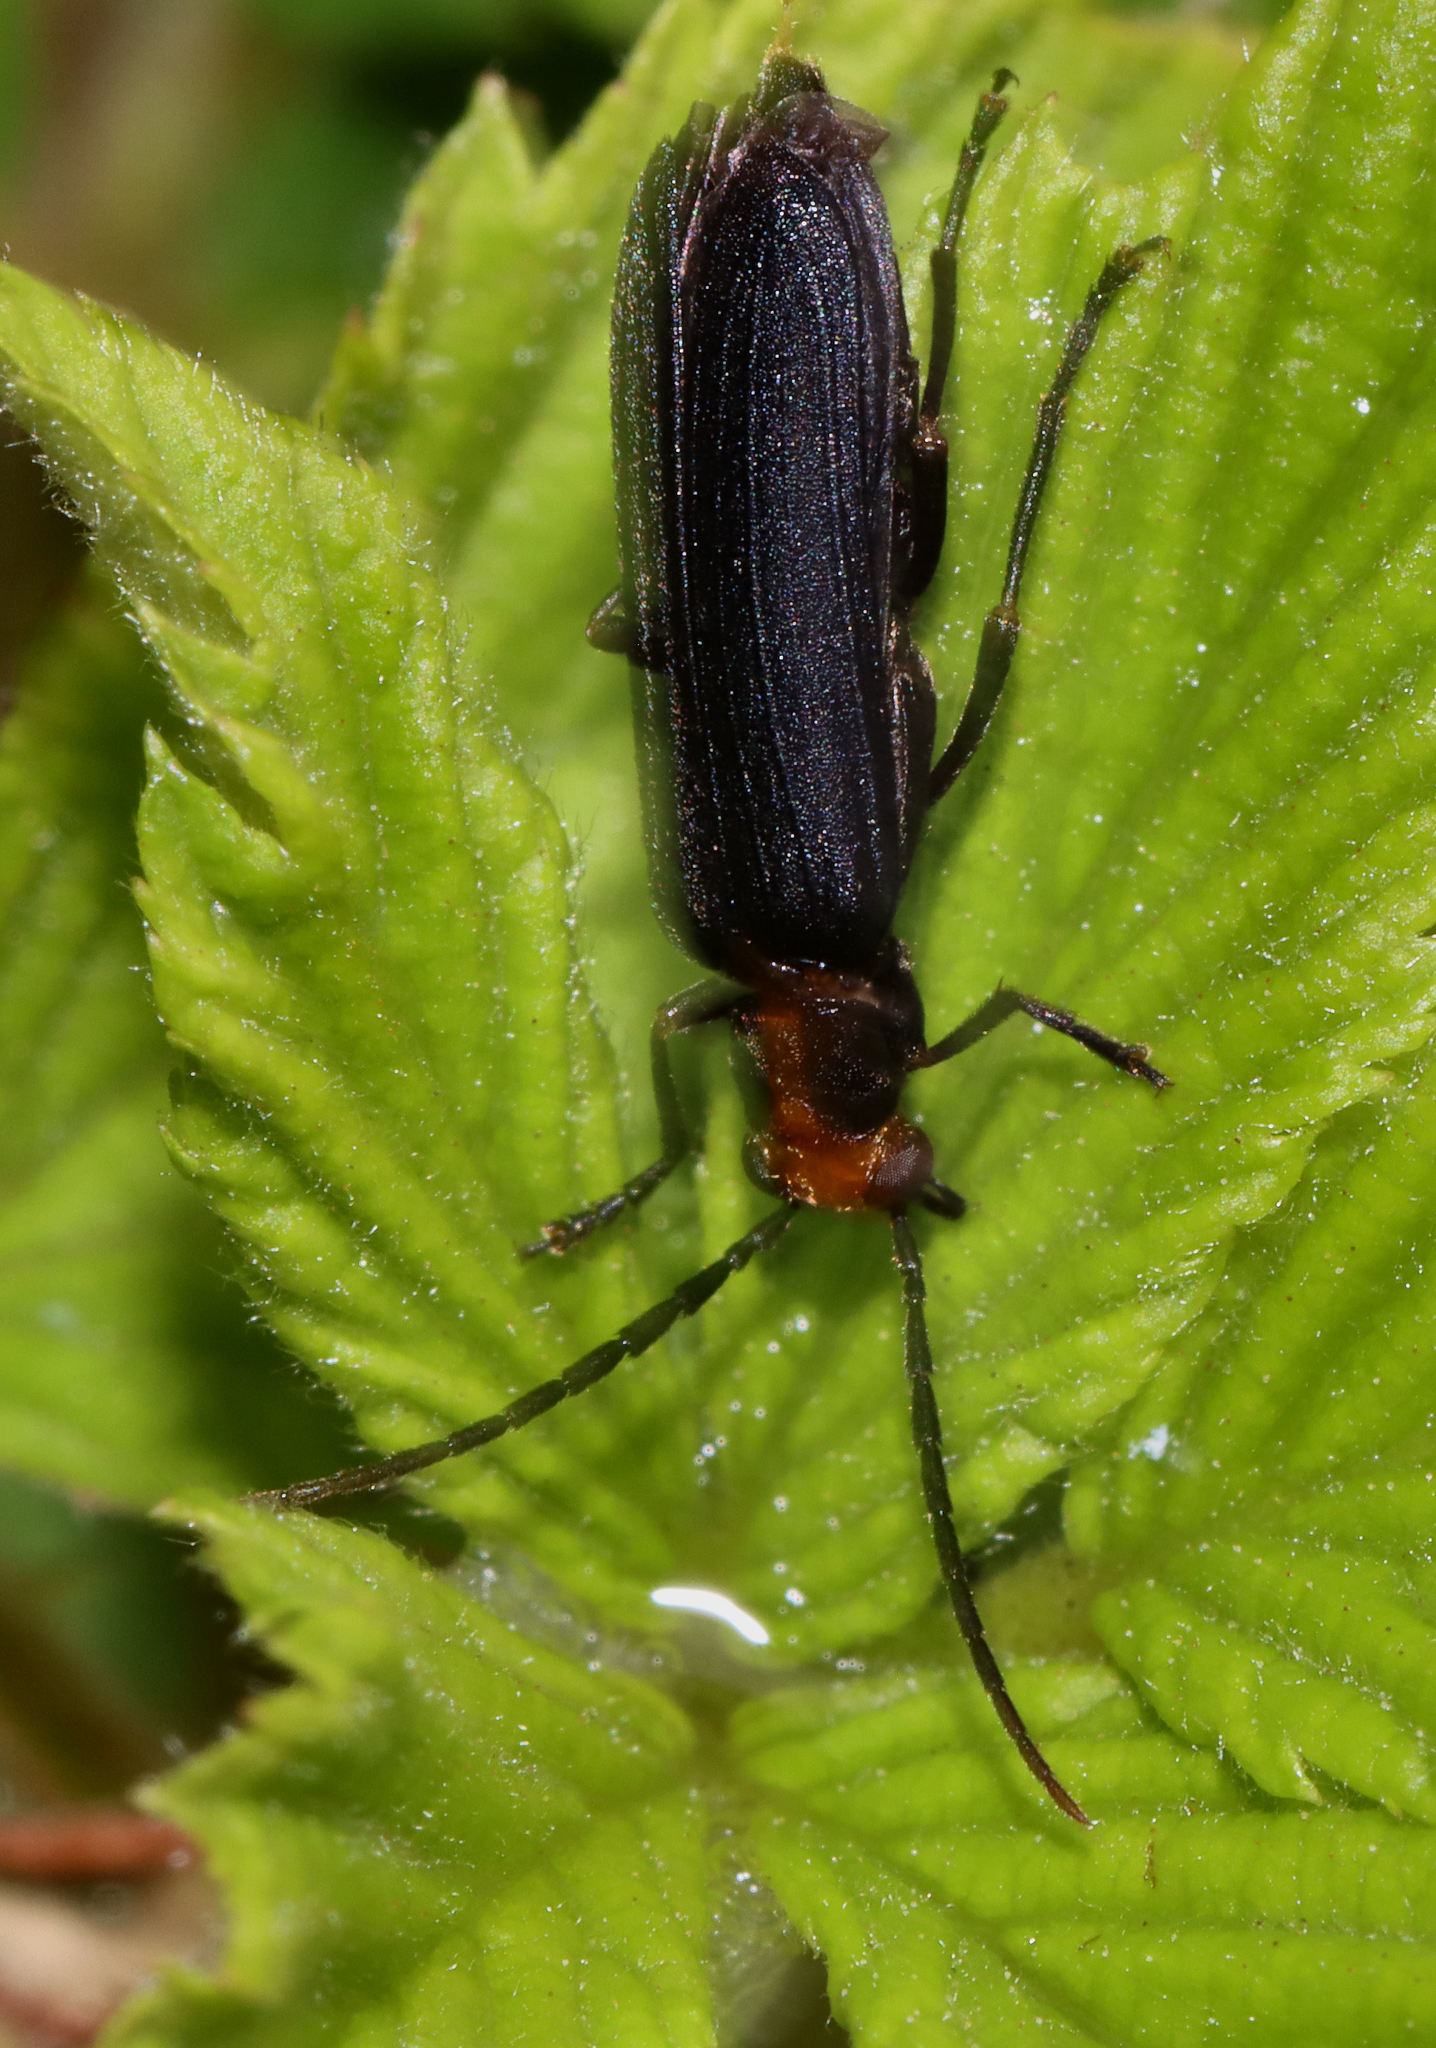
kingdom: Animalia
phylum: Arthropoda
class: Insecta
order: Coleoptera
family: Oedemeridae
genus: Nacerdes
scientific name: Nacerdes
